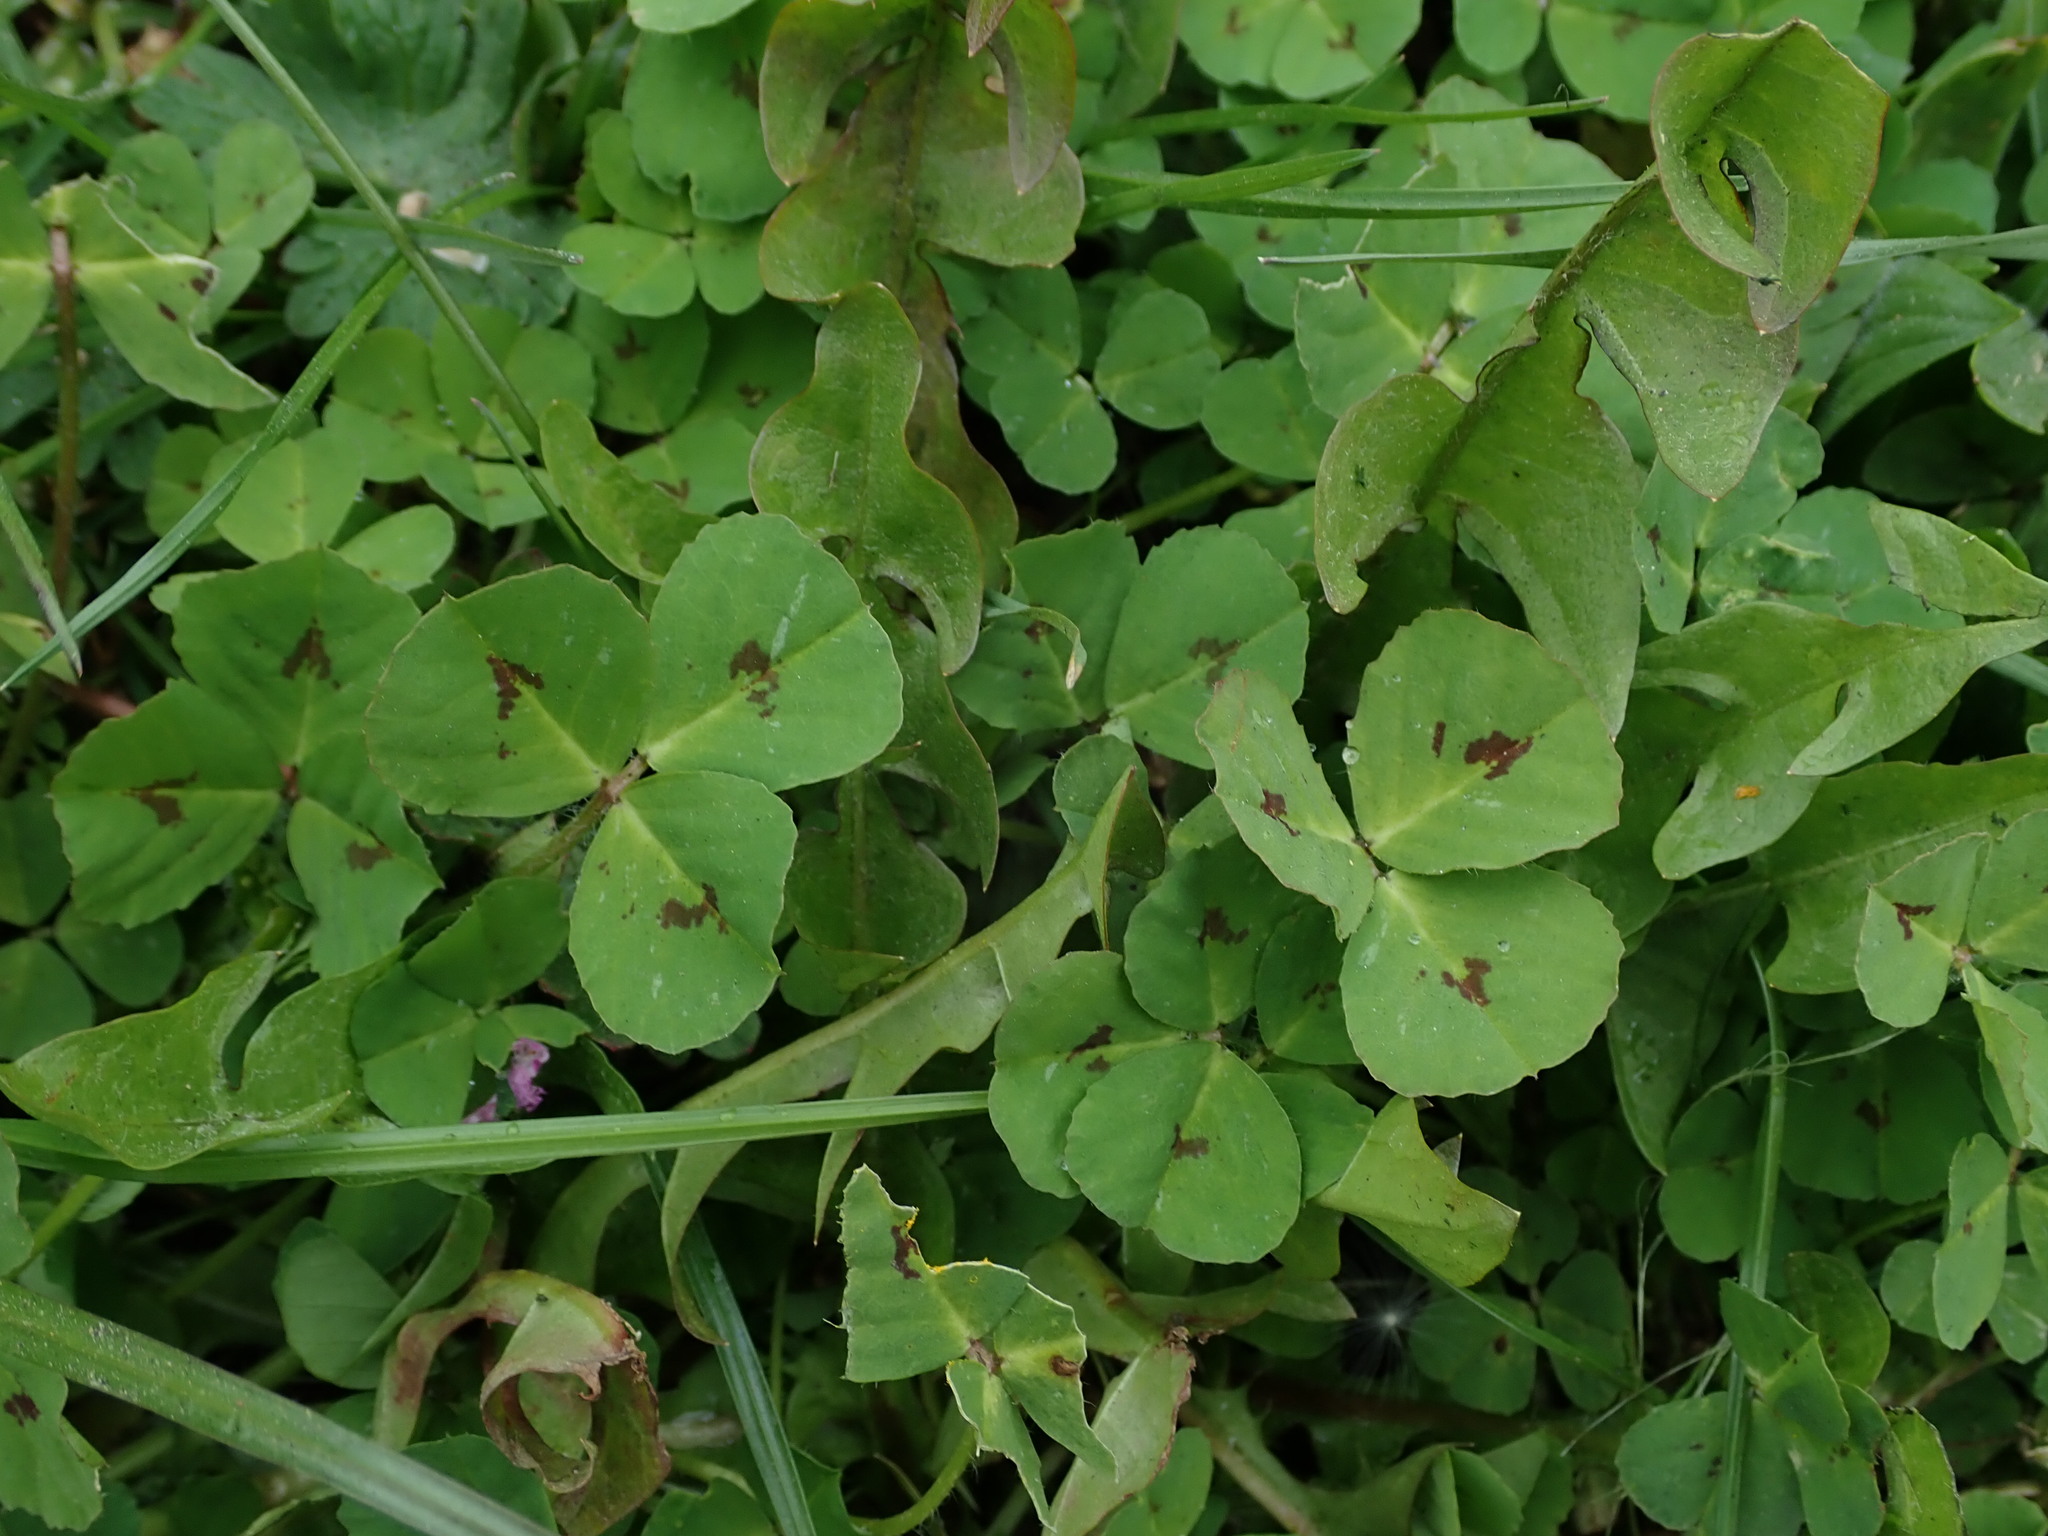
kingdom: Plantae
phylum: Tracheophyta
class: Magnoliopsida
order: Fabales
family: Fabaceae
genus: Medicago
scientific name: Medicago arabica
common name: Spotted medick
